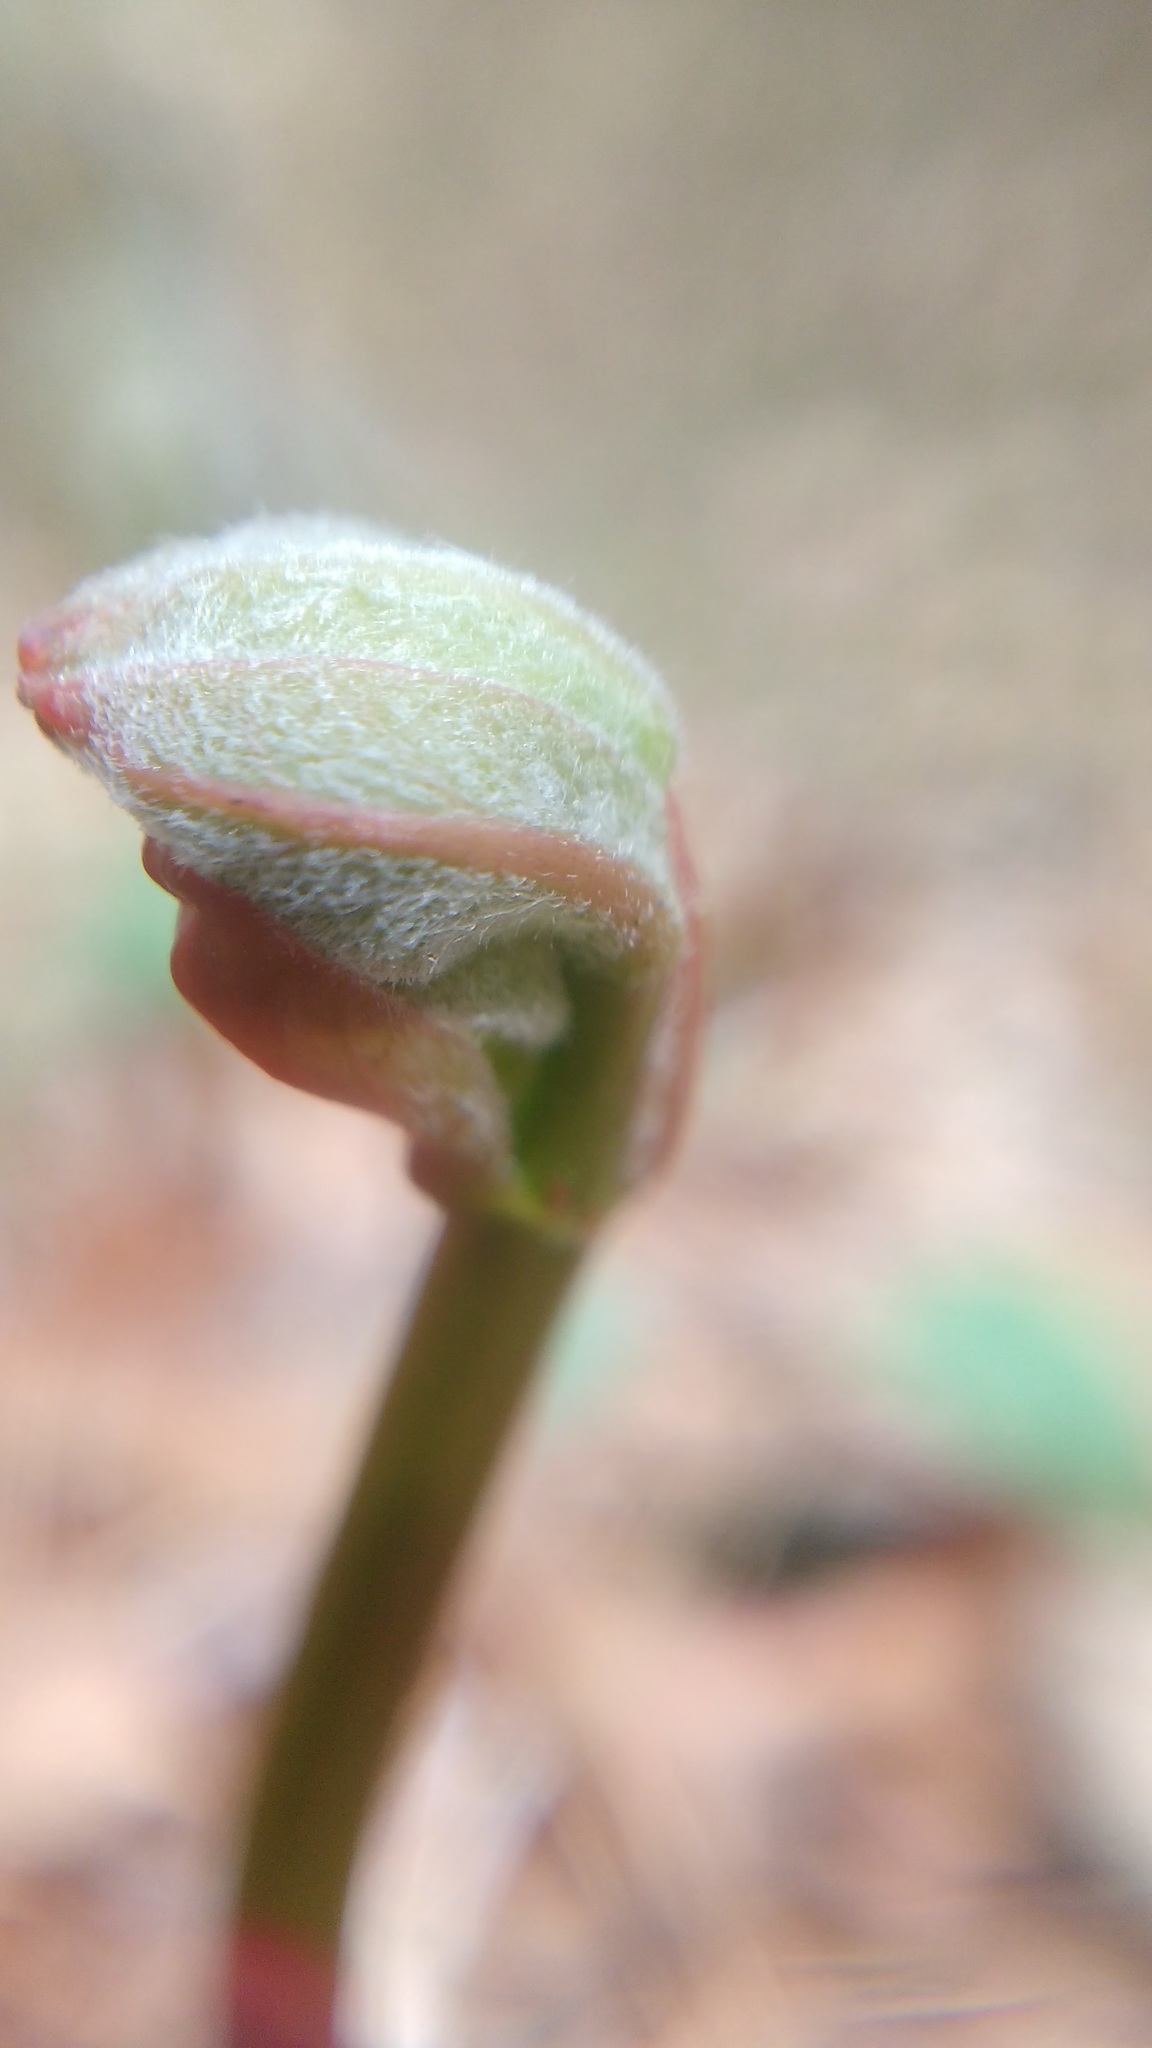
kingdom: Plantae
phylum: Tracheophyta
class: Magnoliopsida
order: Caryophyllales
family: Polygonaceae
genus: Reynoutria
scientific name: Reynoutria japonica
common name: Japanese knotweed
